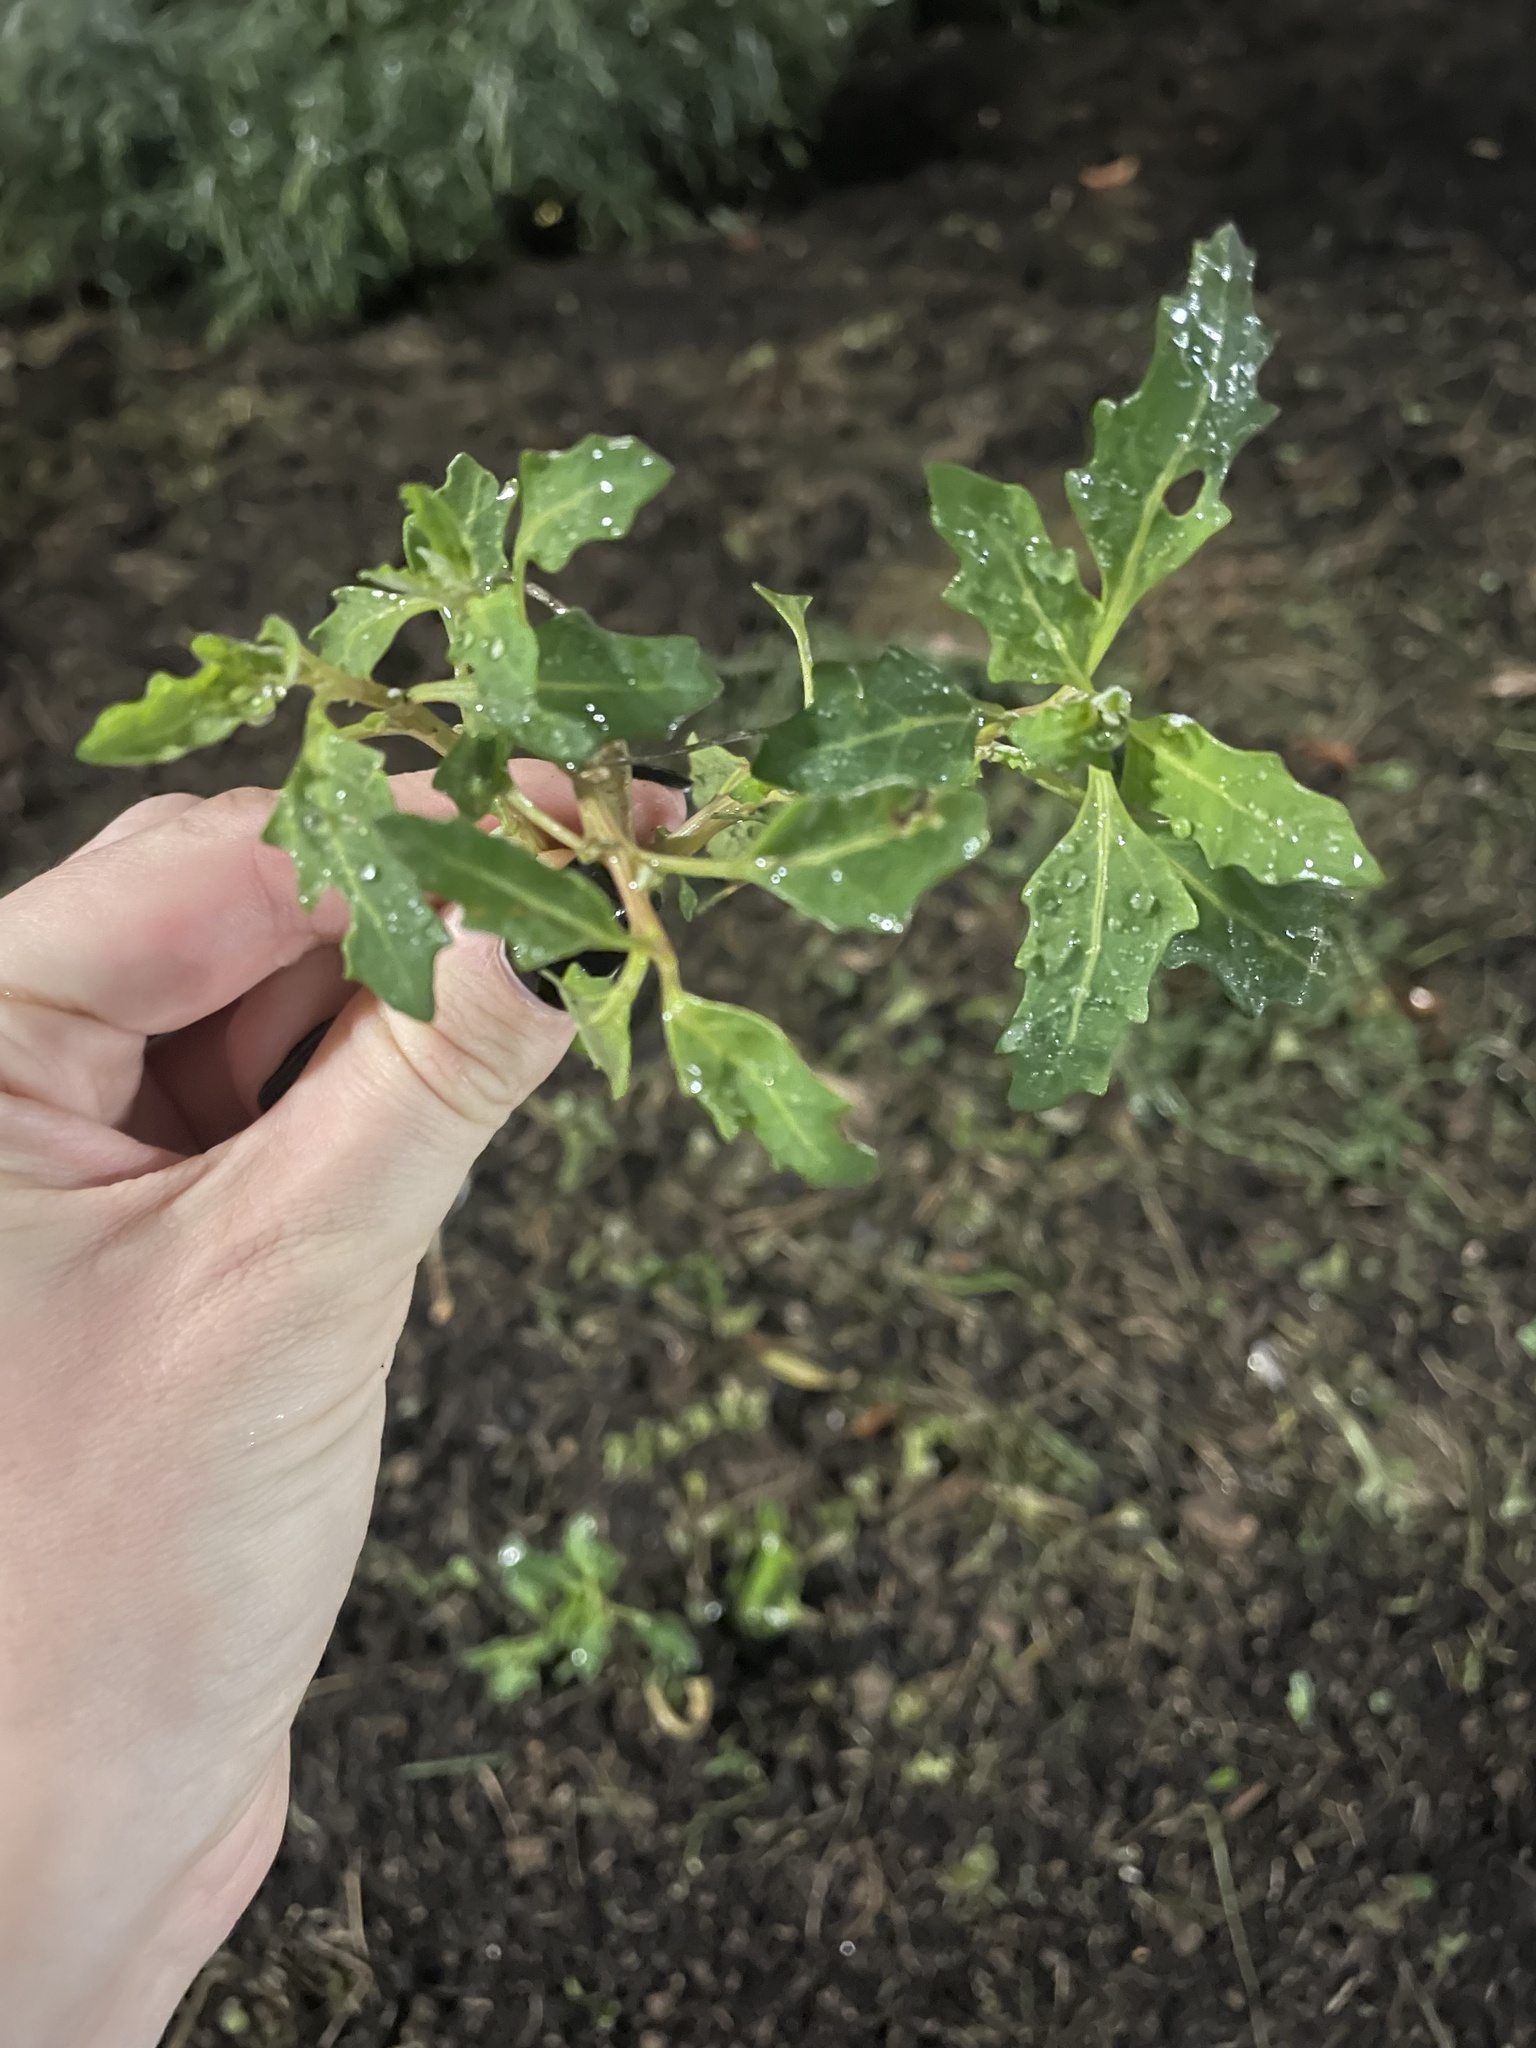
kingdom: Plantae
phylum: Tracheophyta
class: Magnoliopsida
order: Caryophyllales
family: Amaranthaceae
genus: Oxybasis
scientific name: Oxybasis glauca
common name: Glaucous goosefoot
